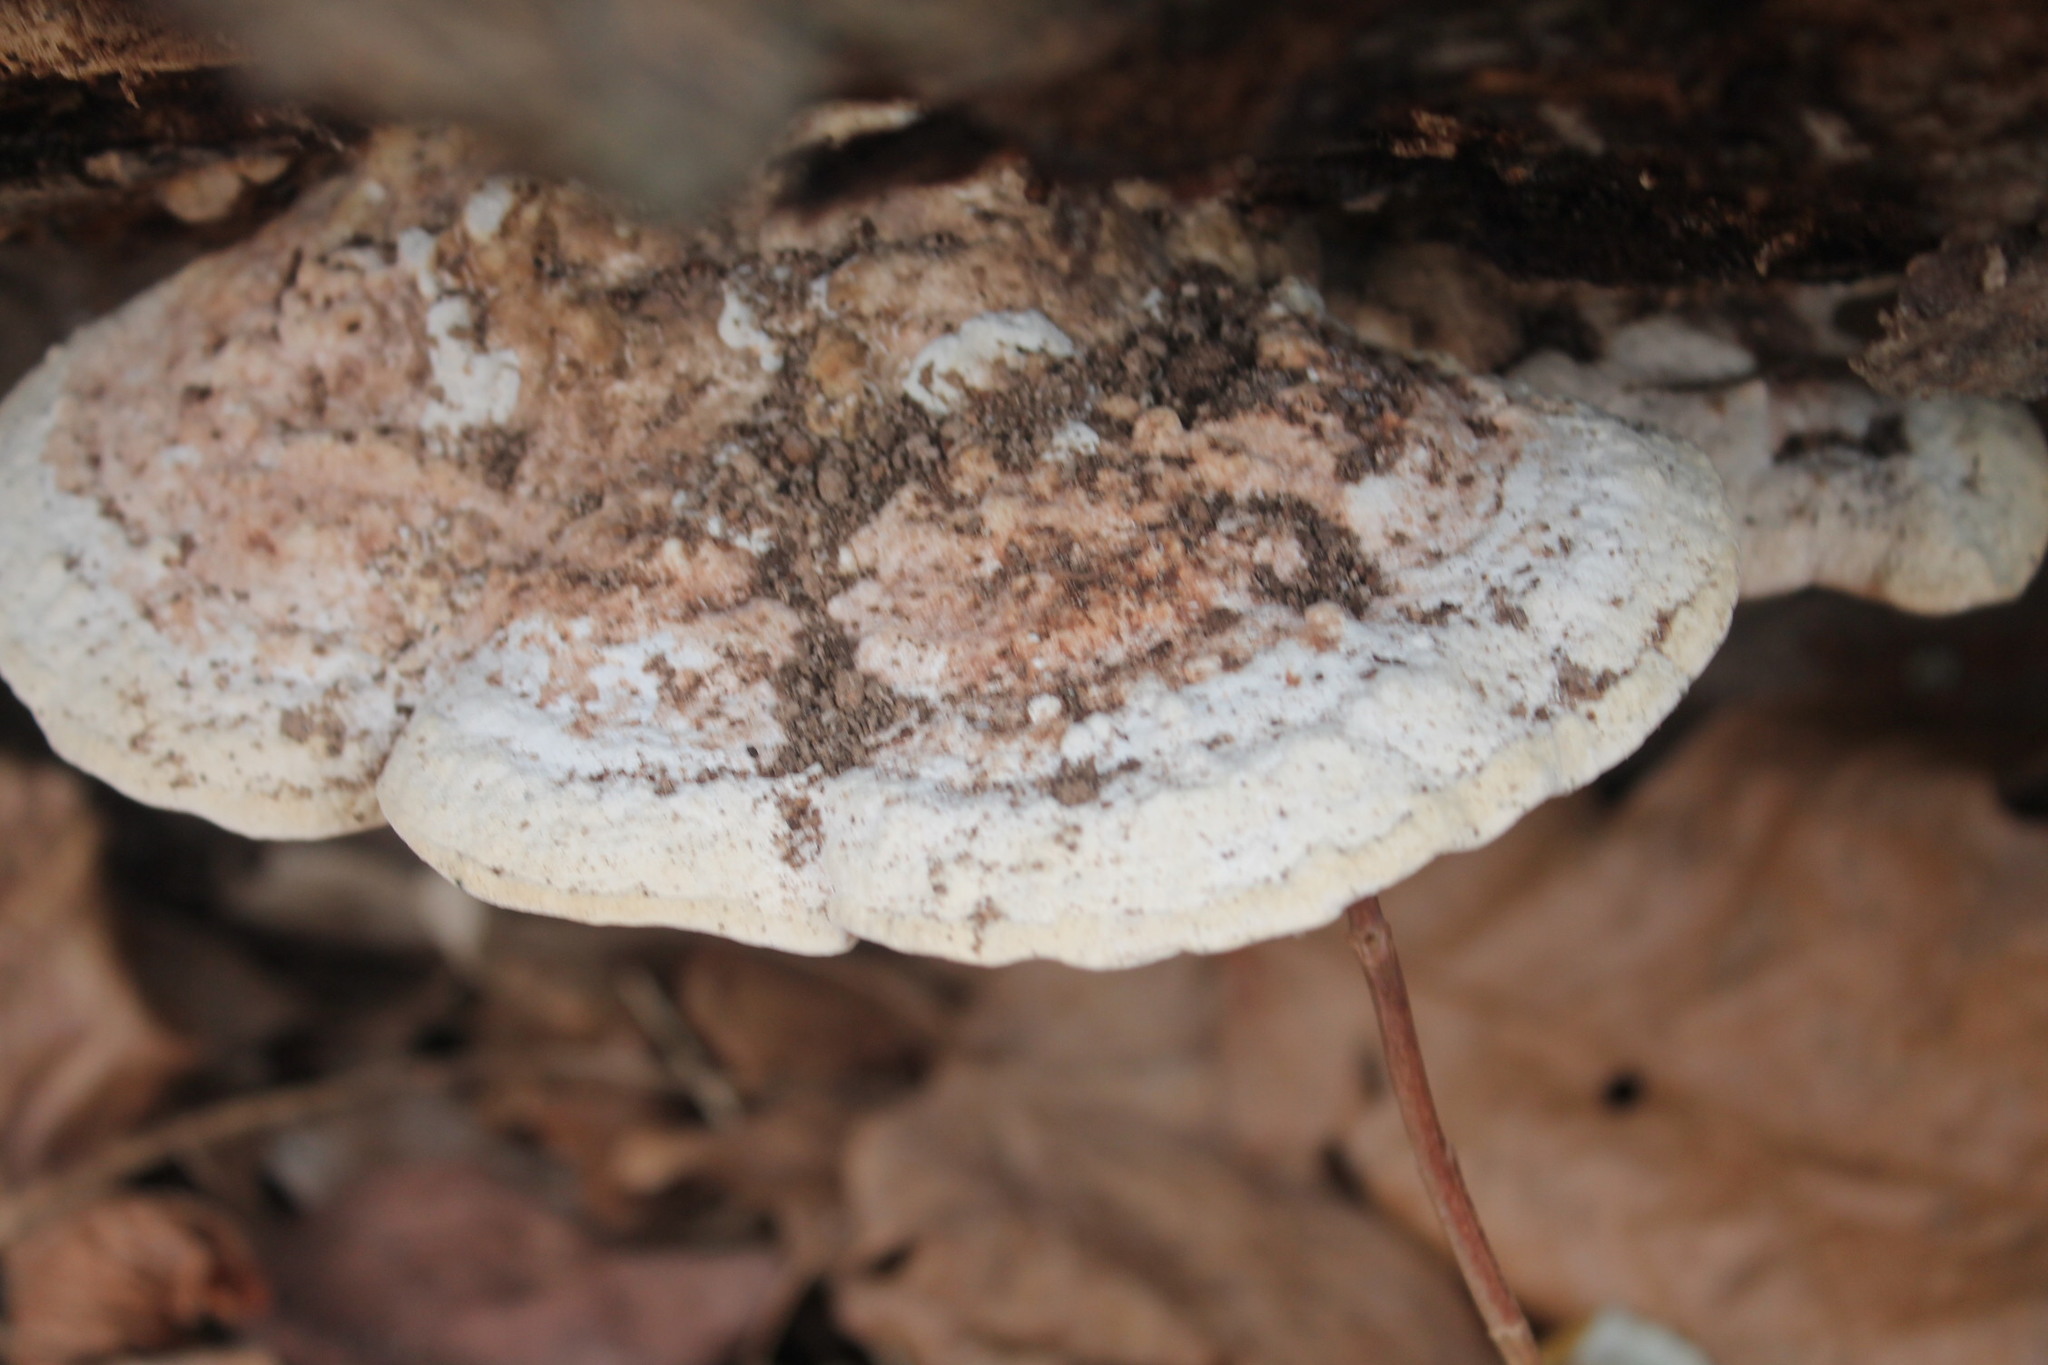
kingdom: Fungi
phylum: Basidiomycota
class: Agaricomycetes
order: Polyporales
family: Polyporaceae
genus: Trametes
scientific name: Trametes gibbosa
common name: Lumpy bracket
